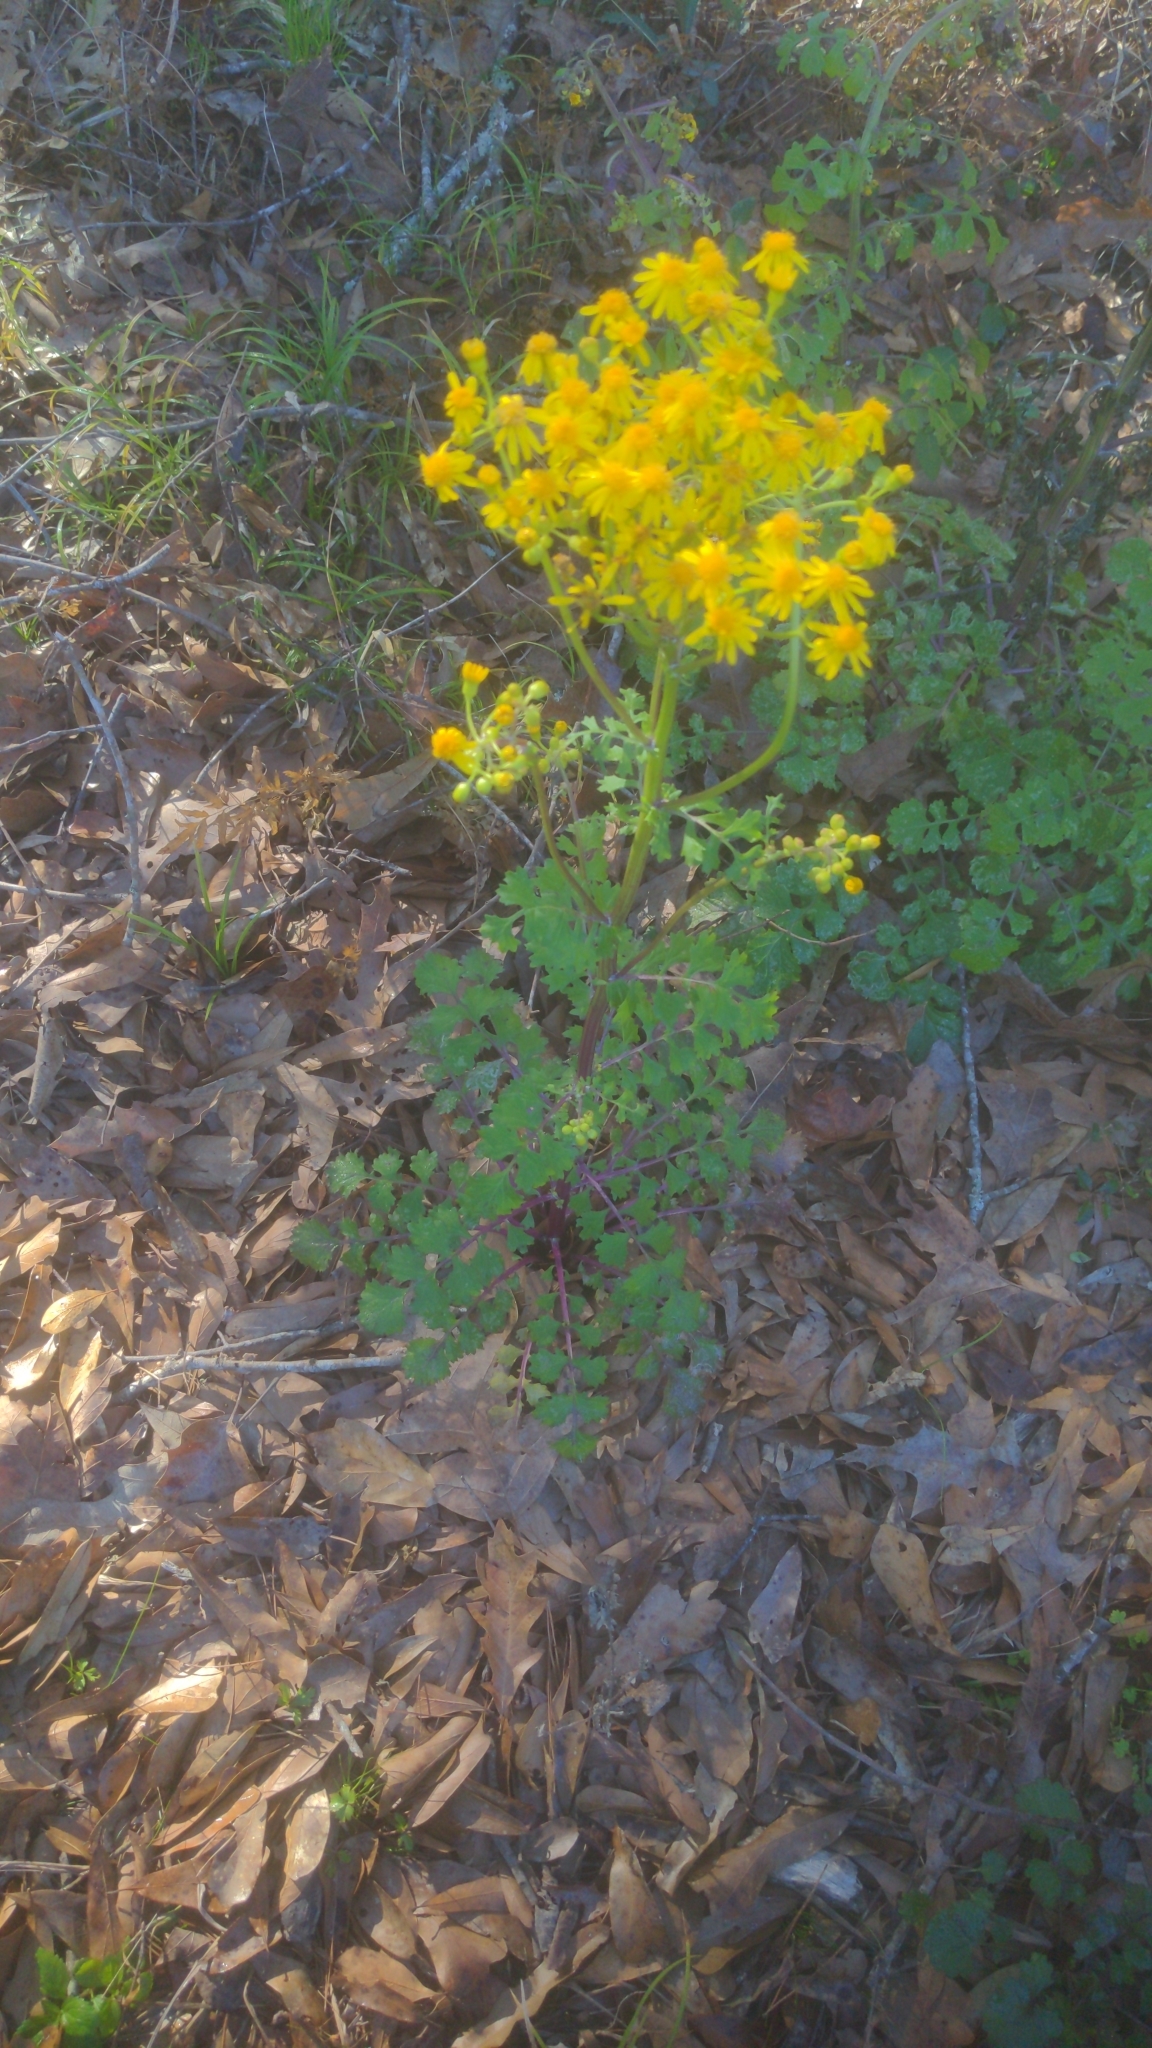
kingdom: Plantae
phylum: Tracheophyta
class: Magnoliopsida
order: Asterales
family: Asteraceae
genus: Packera
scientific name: Packera glabella
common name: Butterweed
